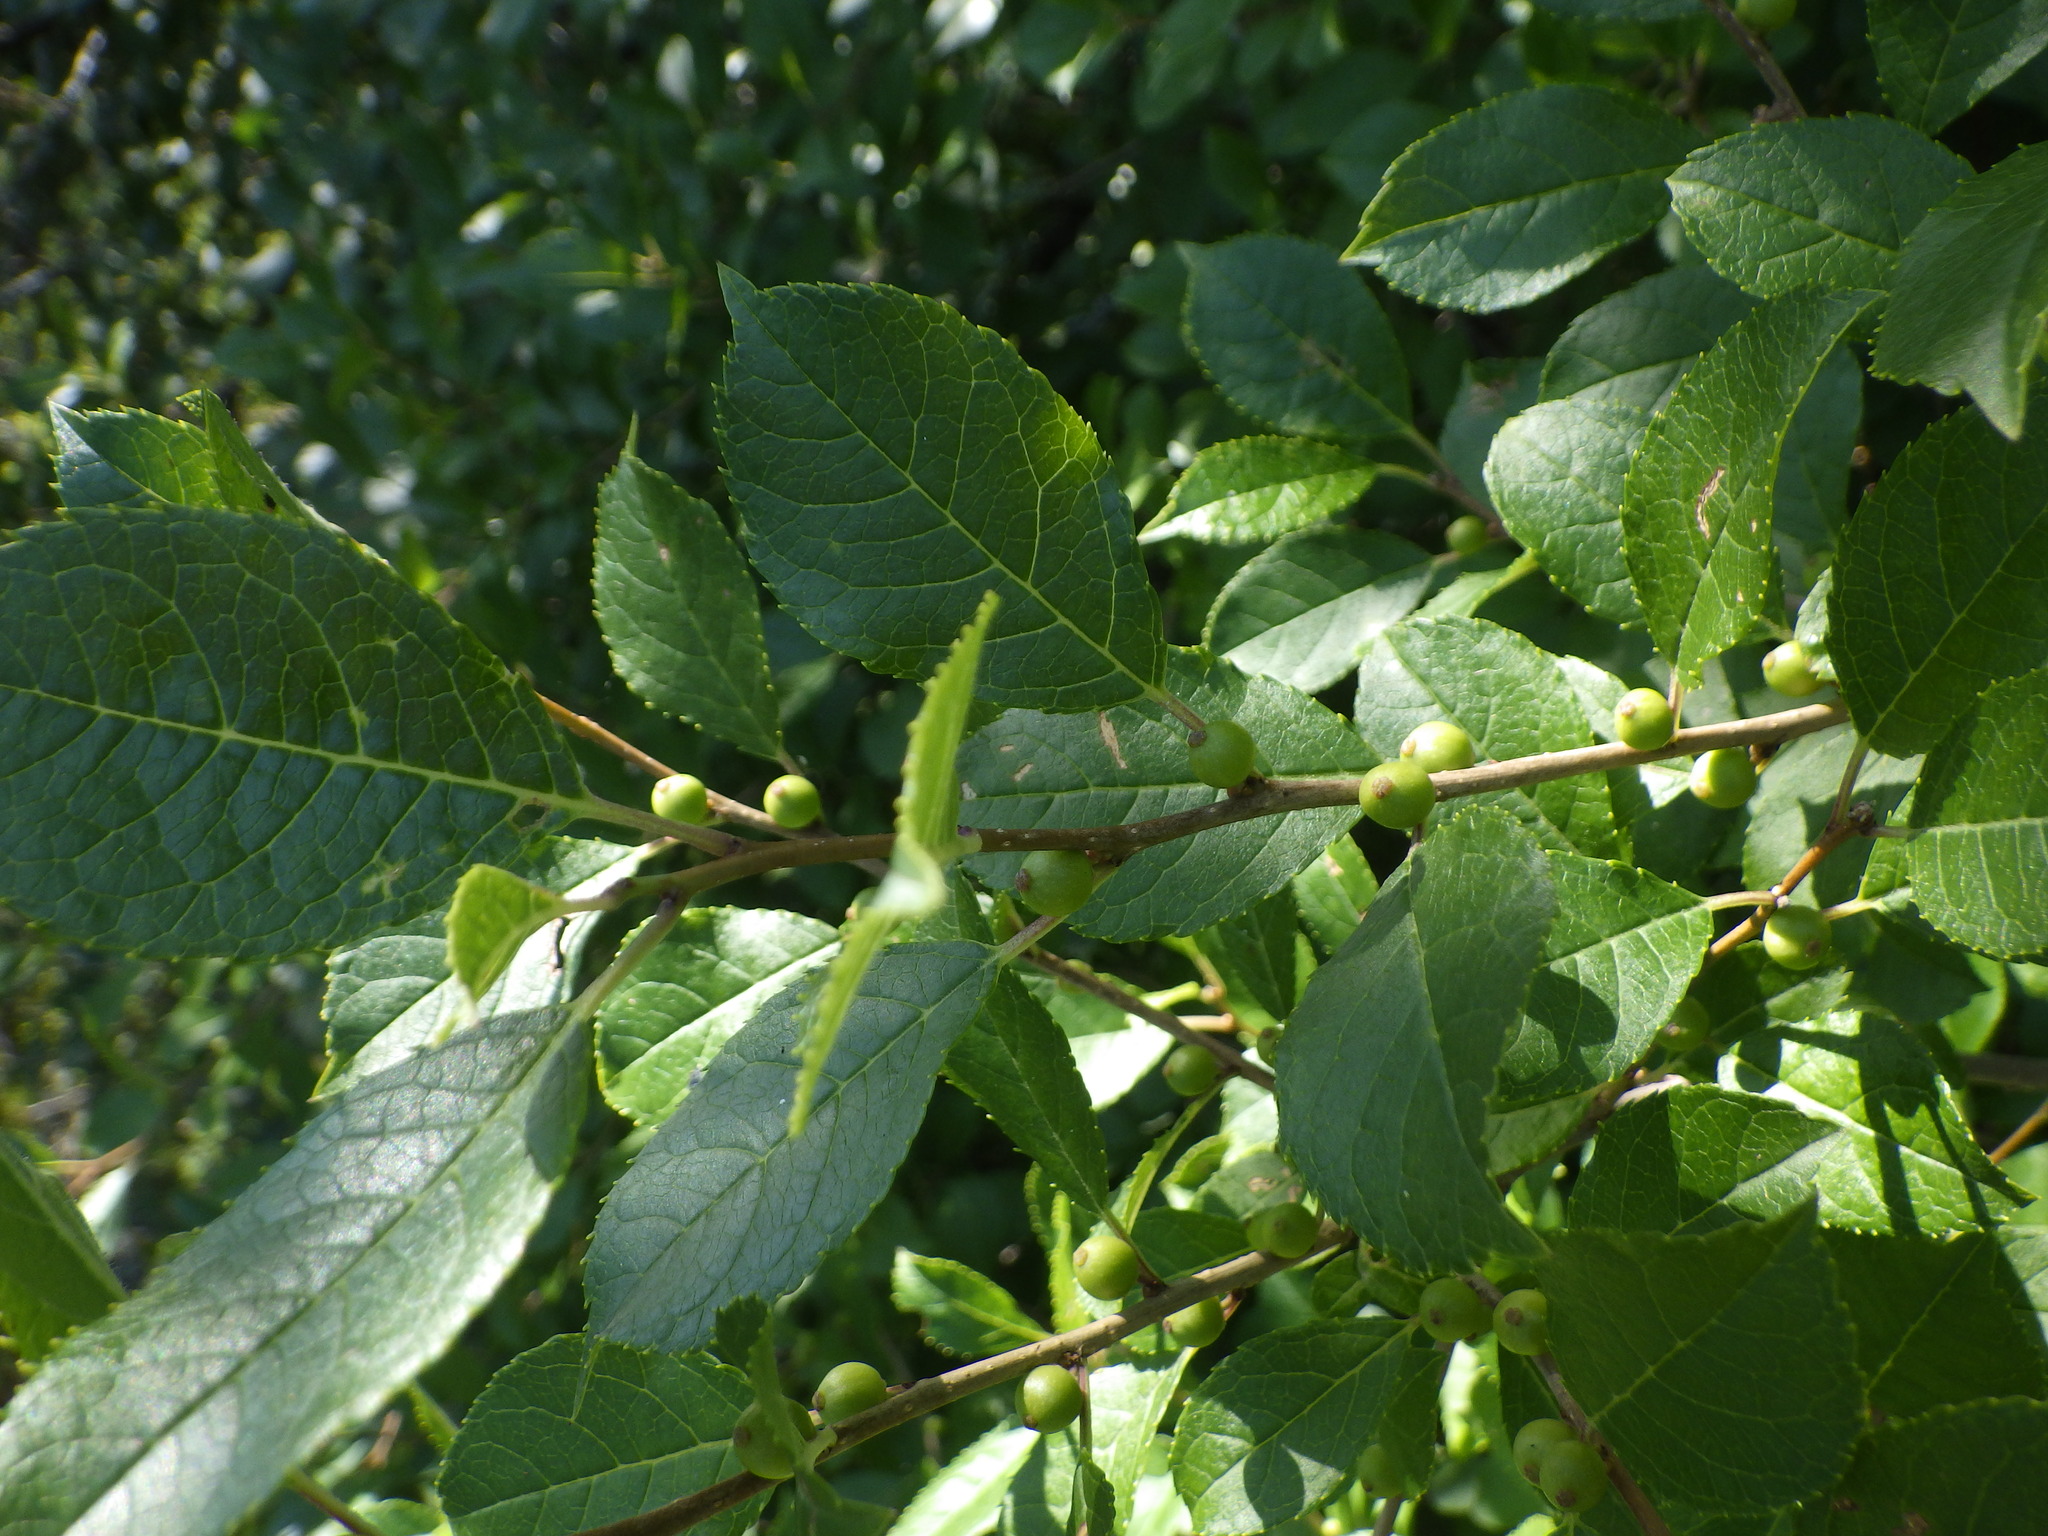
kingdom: Plantae
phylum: Tracheophyta
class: Magnoliopsida
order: Aquifoliales
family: Aquifoliaceae
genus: Ilex
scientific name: Ilex verticillata
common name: Virginia winterberry
